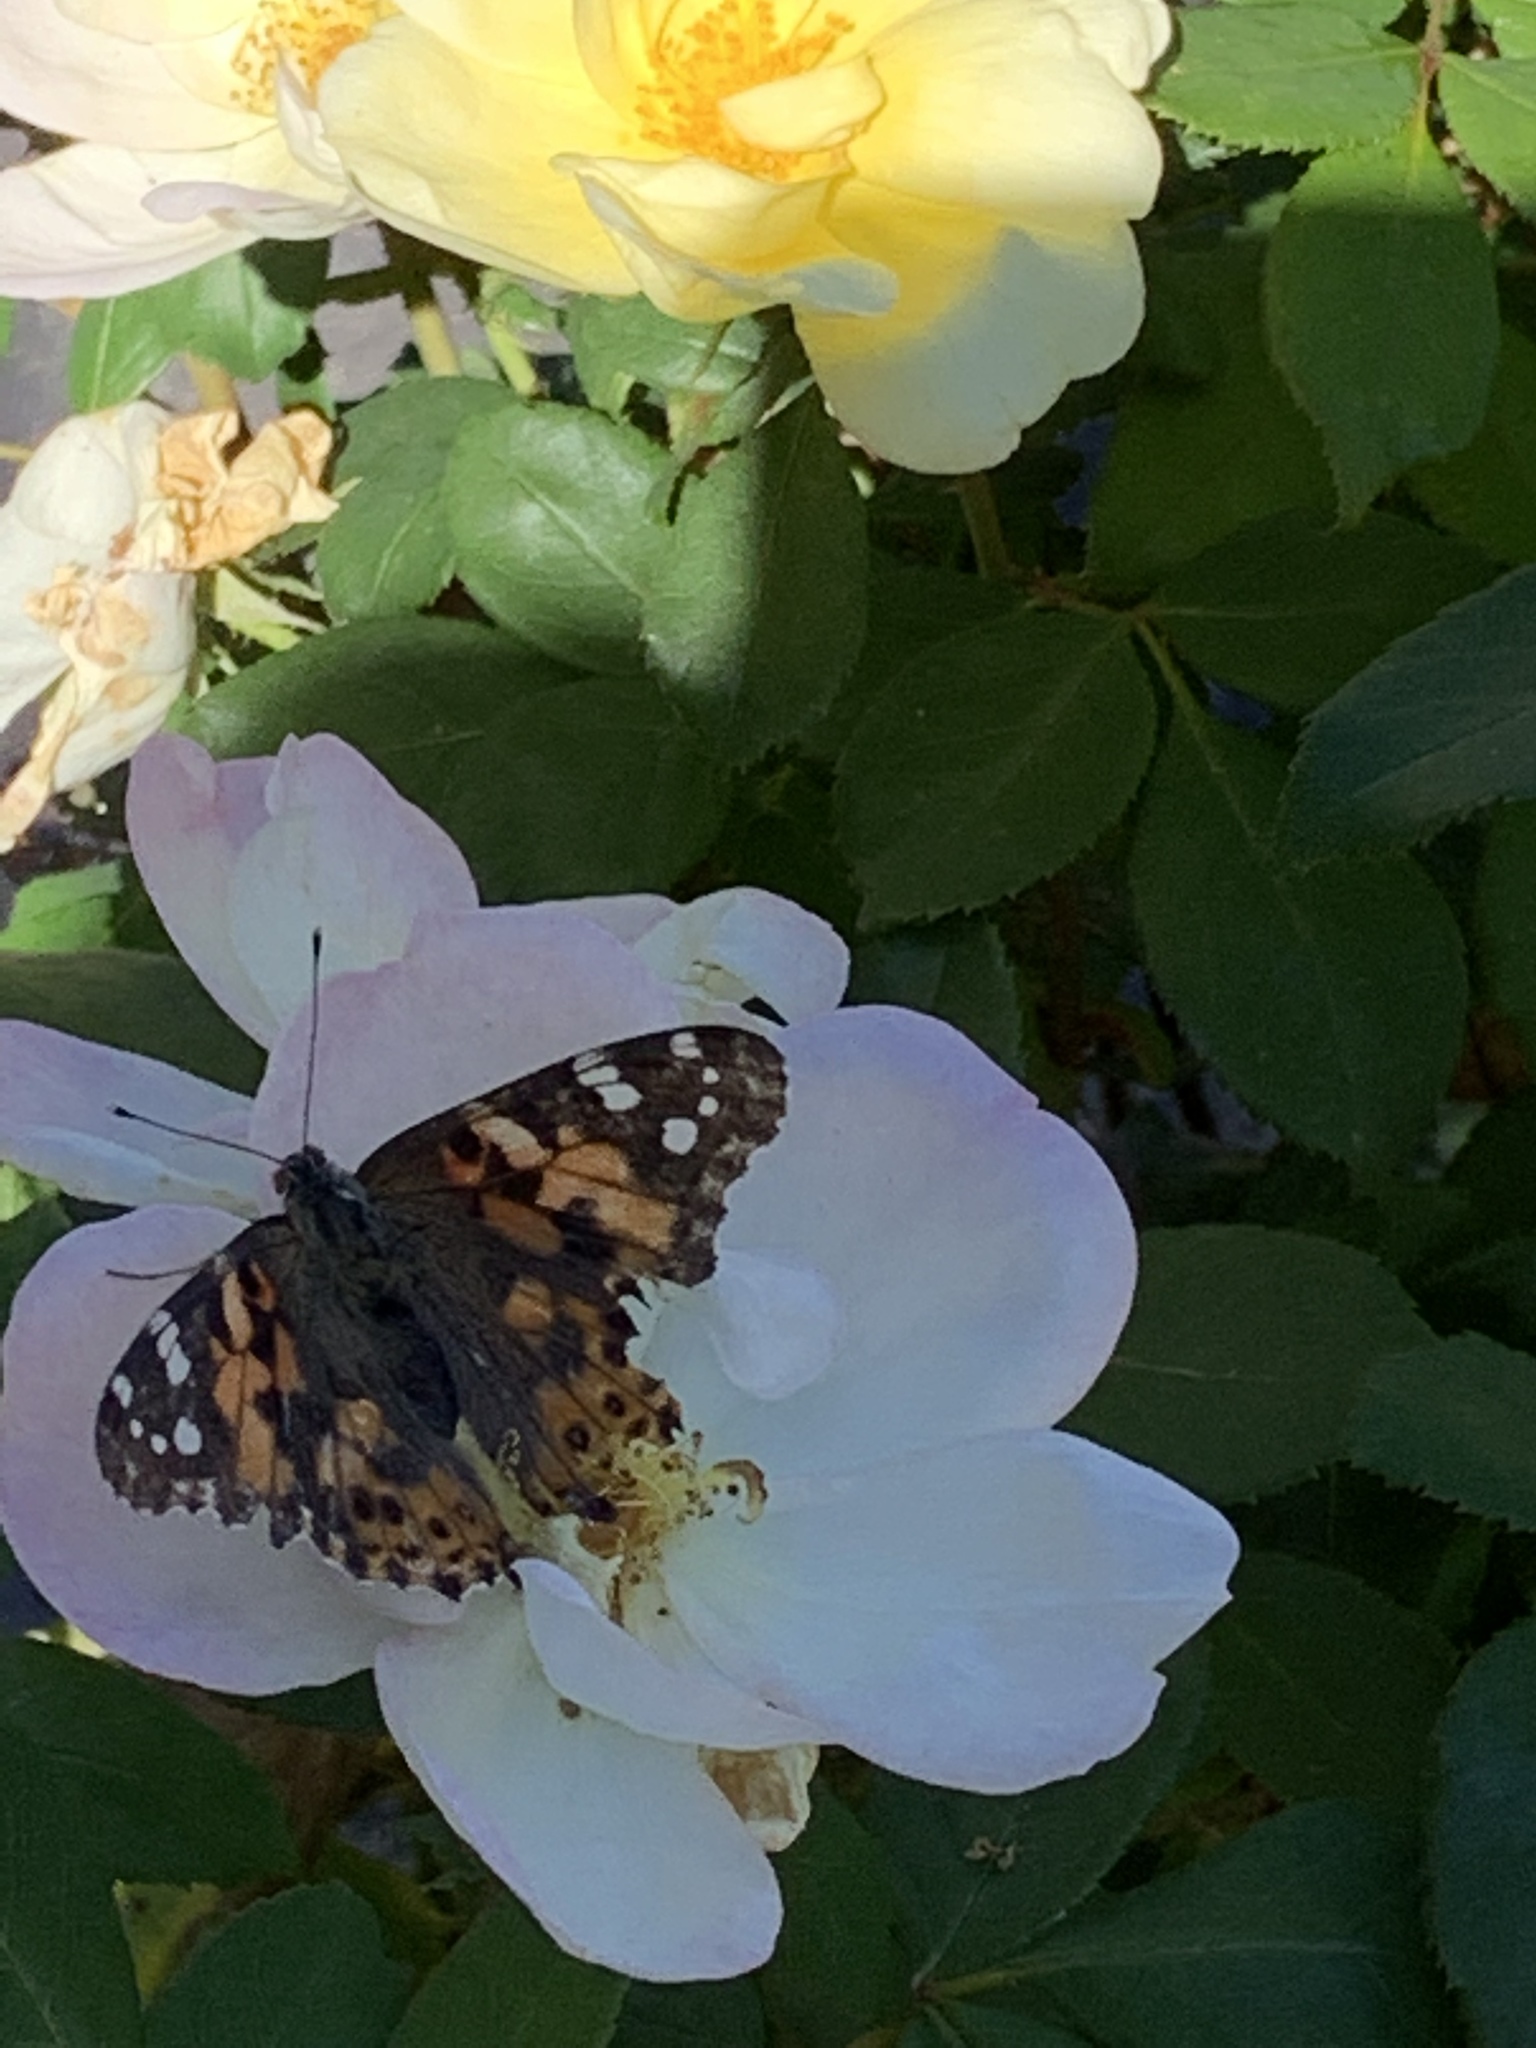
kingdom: Animalia
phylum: Arthropoda
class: Insecta
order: Lepidoptera
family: Nymphalidae
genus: Vanessa
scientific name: Vanessa cardui
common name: Painted lady
